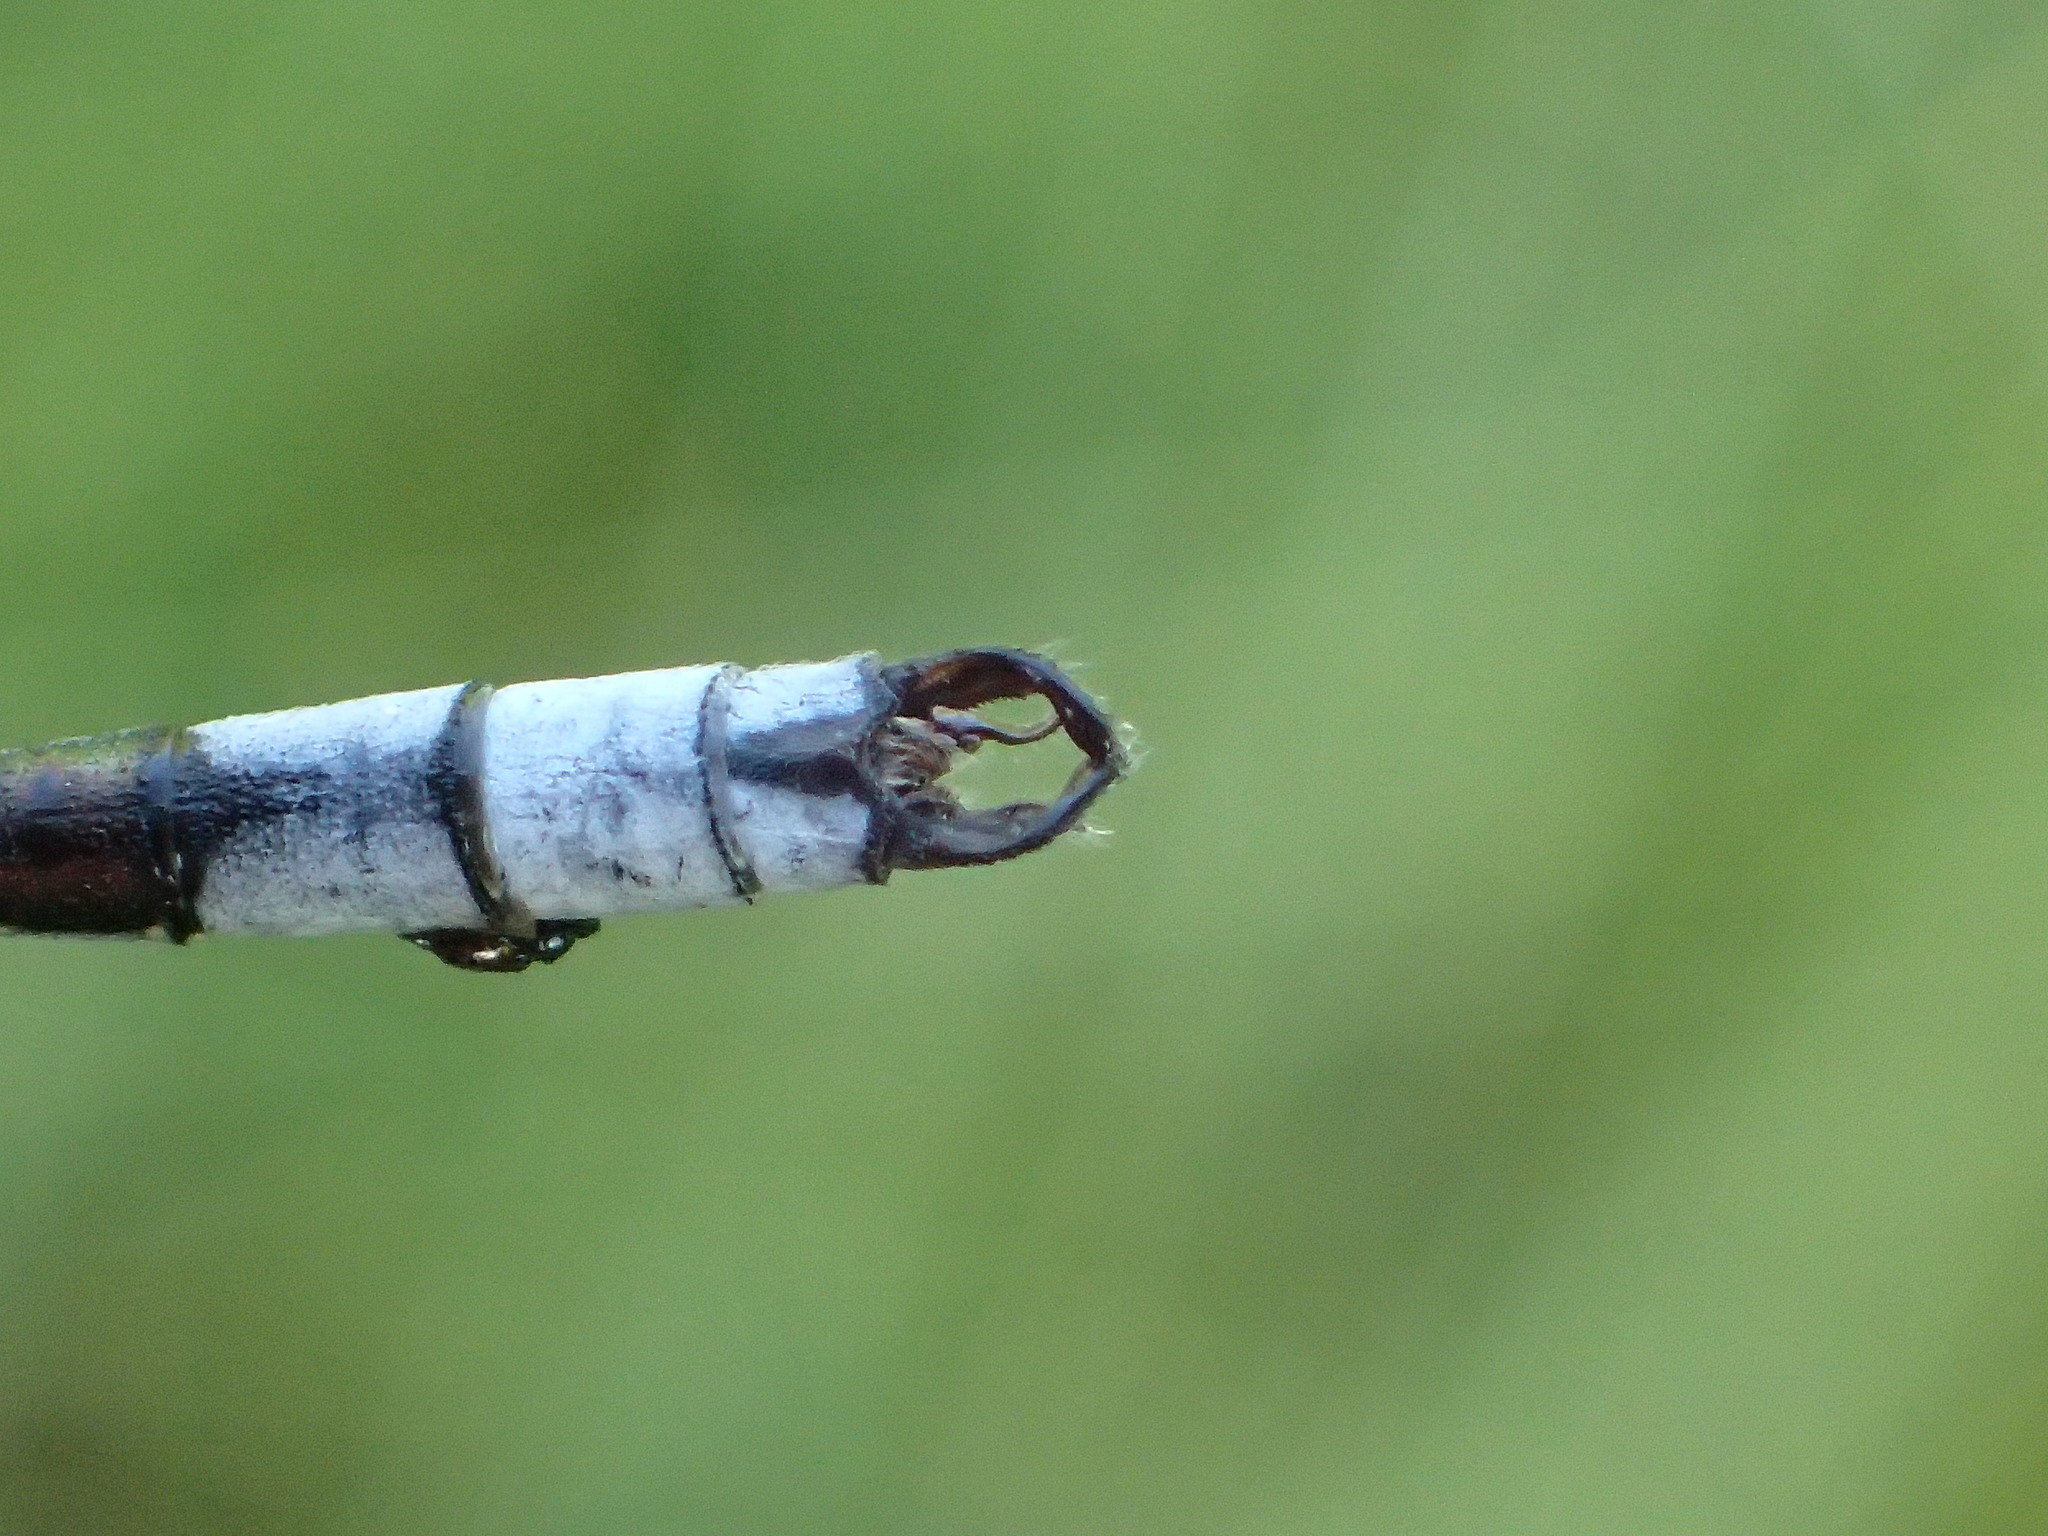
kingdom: Animalia
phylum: Arthropoda
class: Insecta
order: Odonata
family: Lestidae
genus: Lestes
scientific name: Lestes unguiculatus
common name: Lyre-tipped spreadwing
